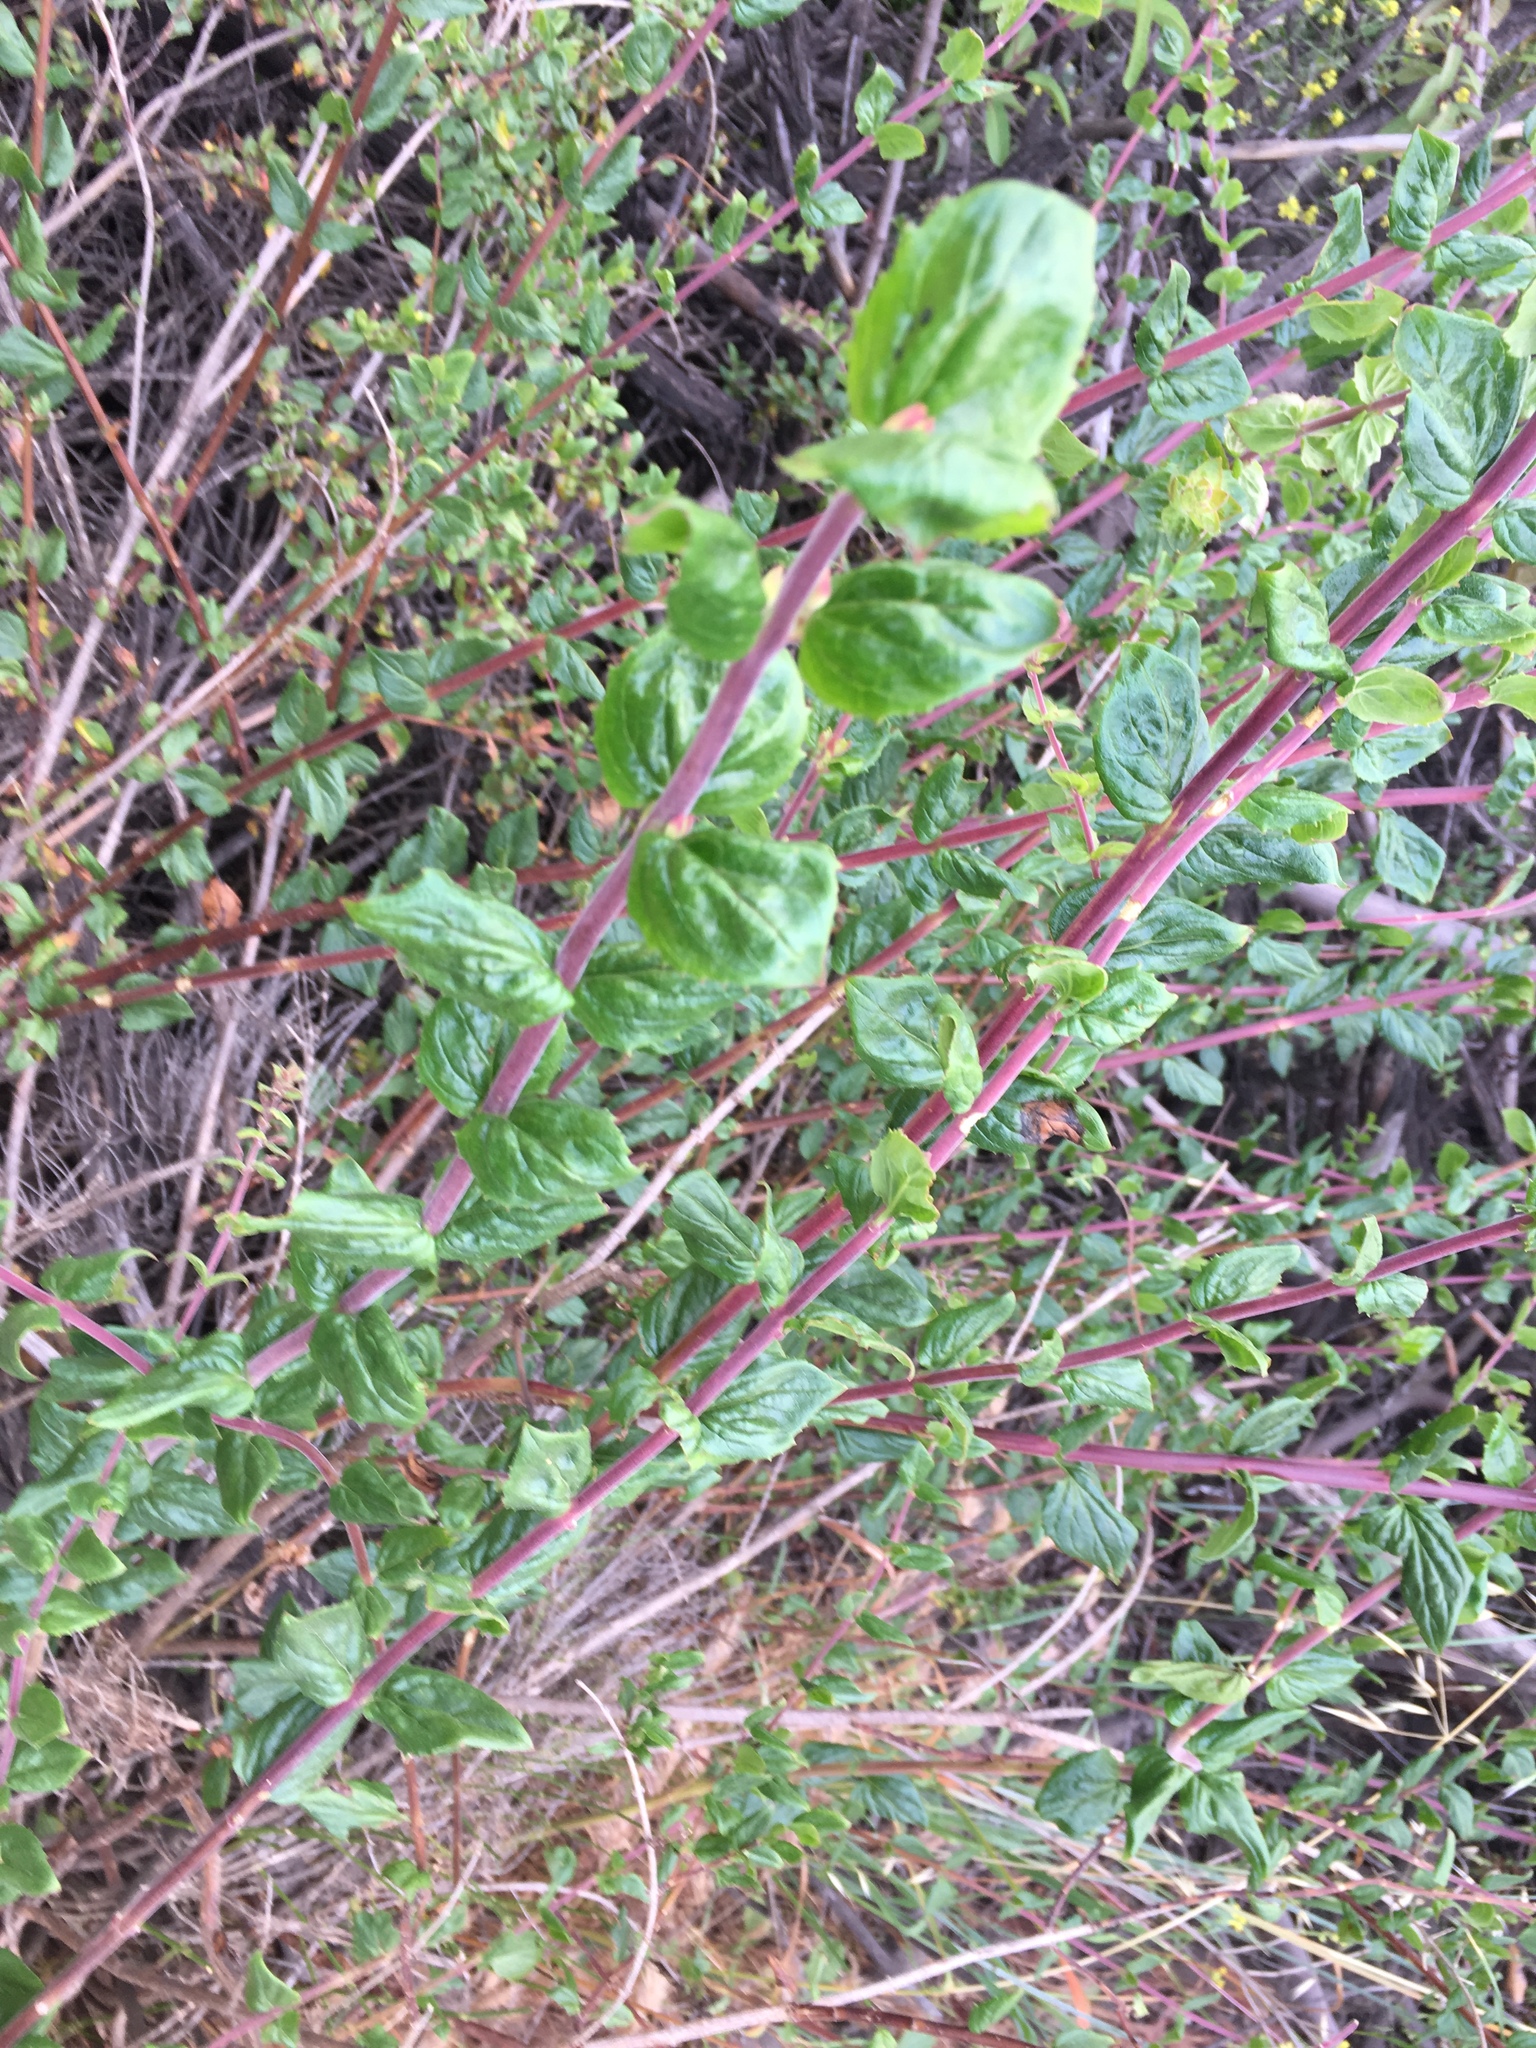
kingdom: Plantae
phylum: Tracheophyta
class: Magnoliopsida
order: Lamiales
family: Plantaginaceae
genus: Keckiella
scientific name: Keckiella cordifolia
